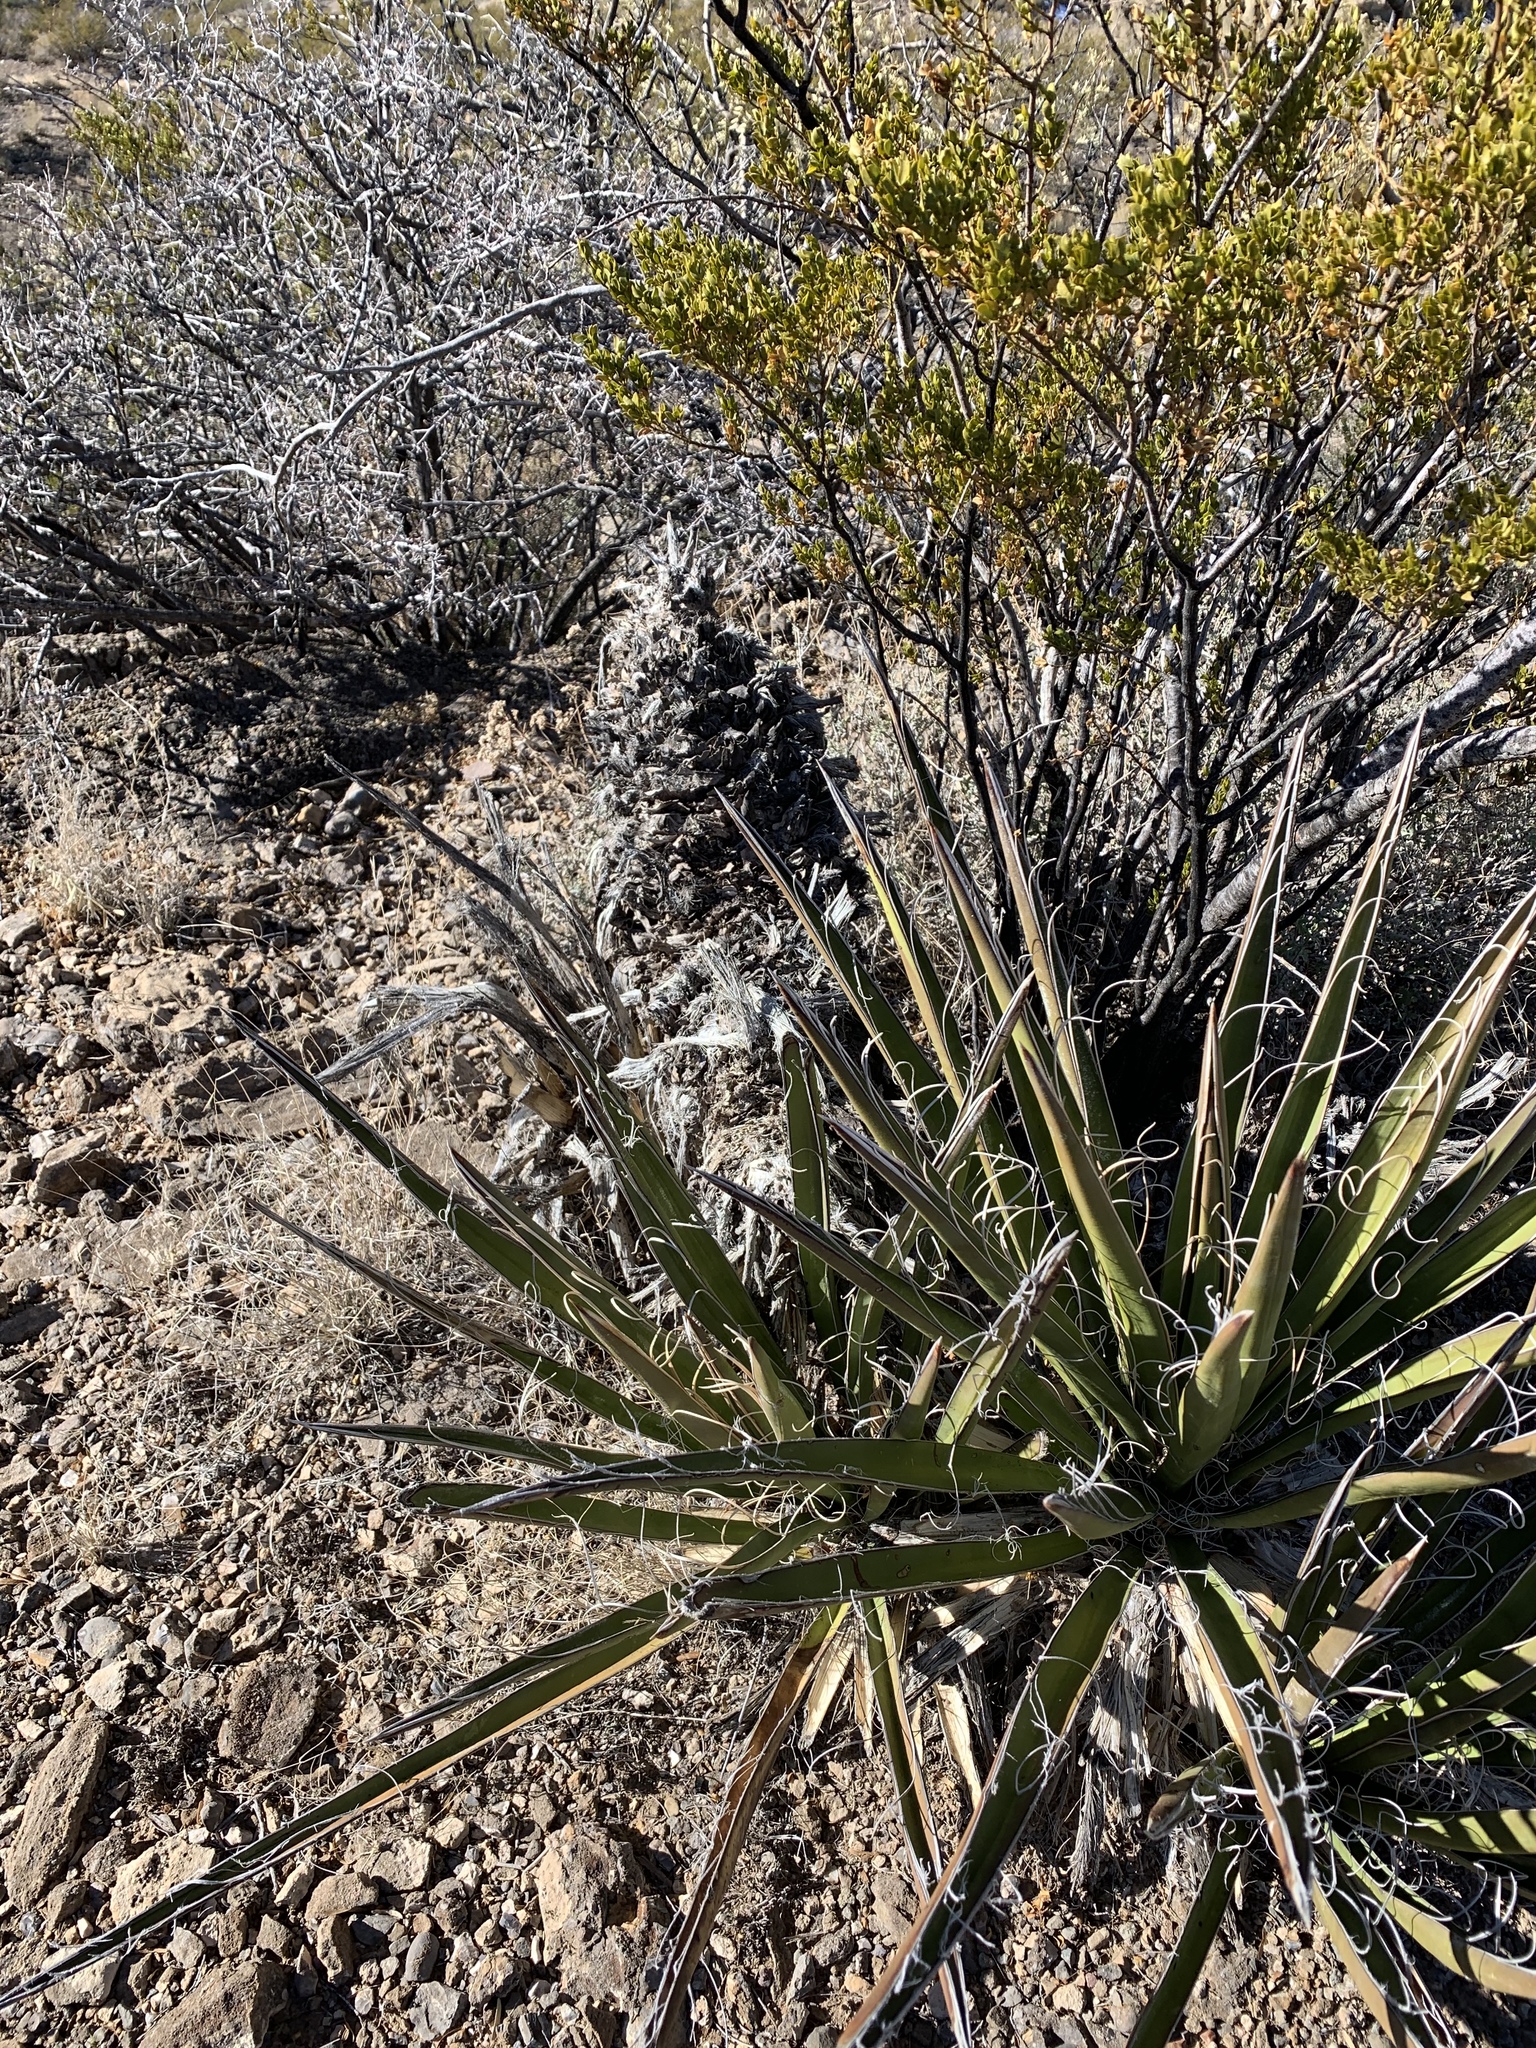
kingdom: Plantae
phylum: Tracheophyta
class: Liliopsida
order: Asparagales
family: Asparagaceae
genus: Yucca
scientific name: Yucca baccata
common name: Banana yucca
